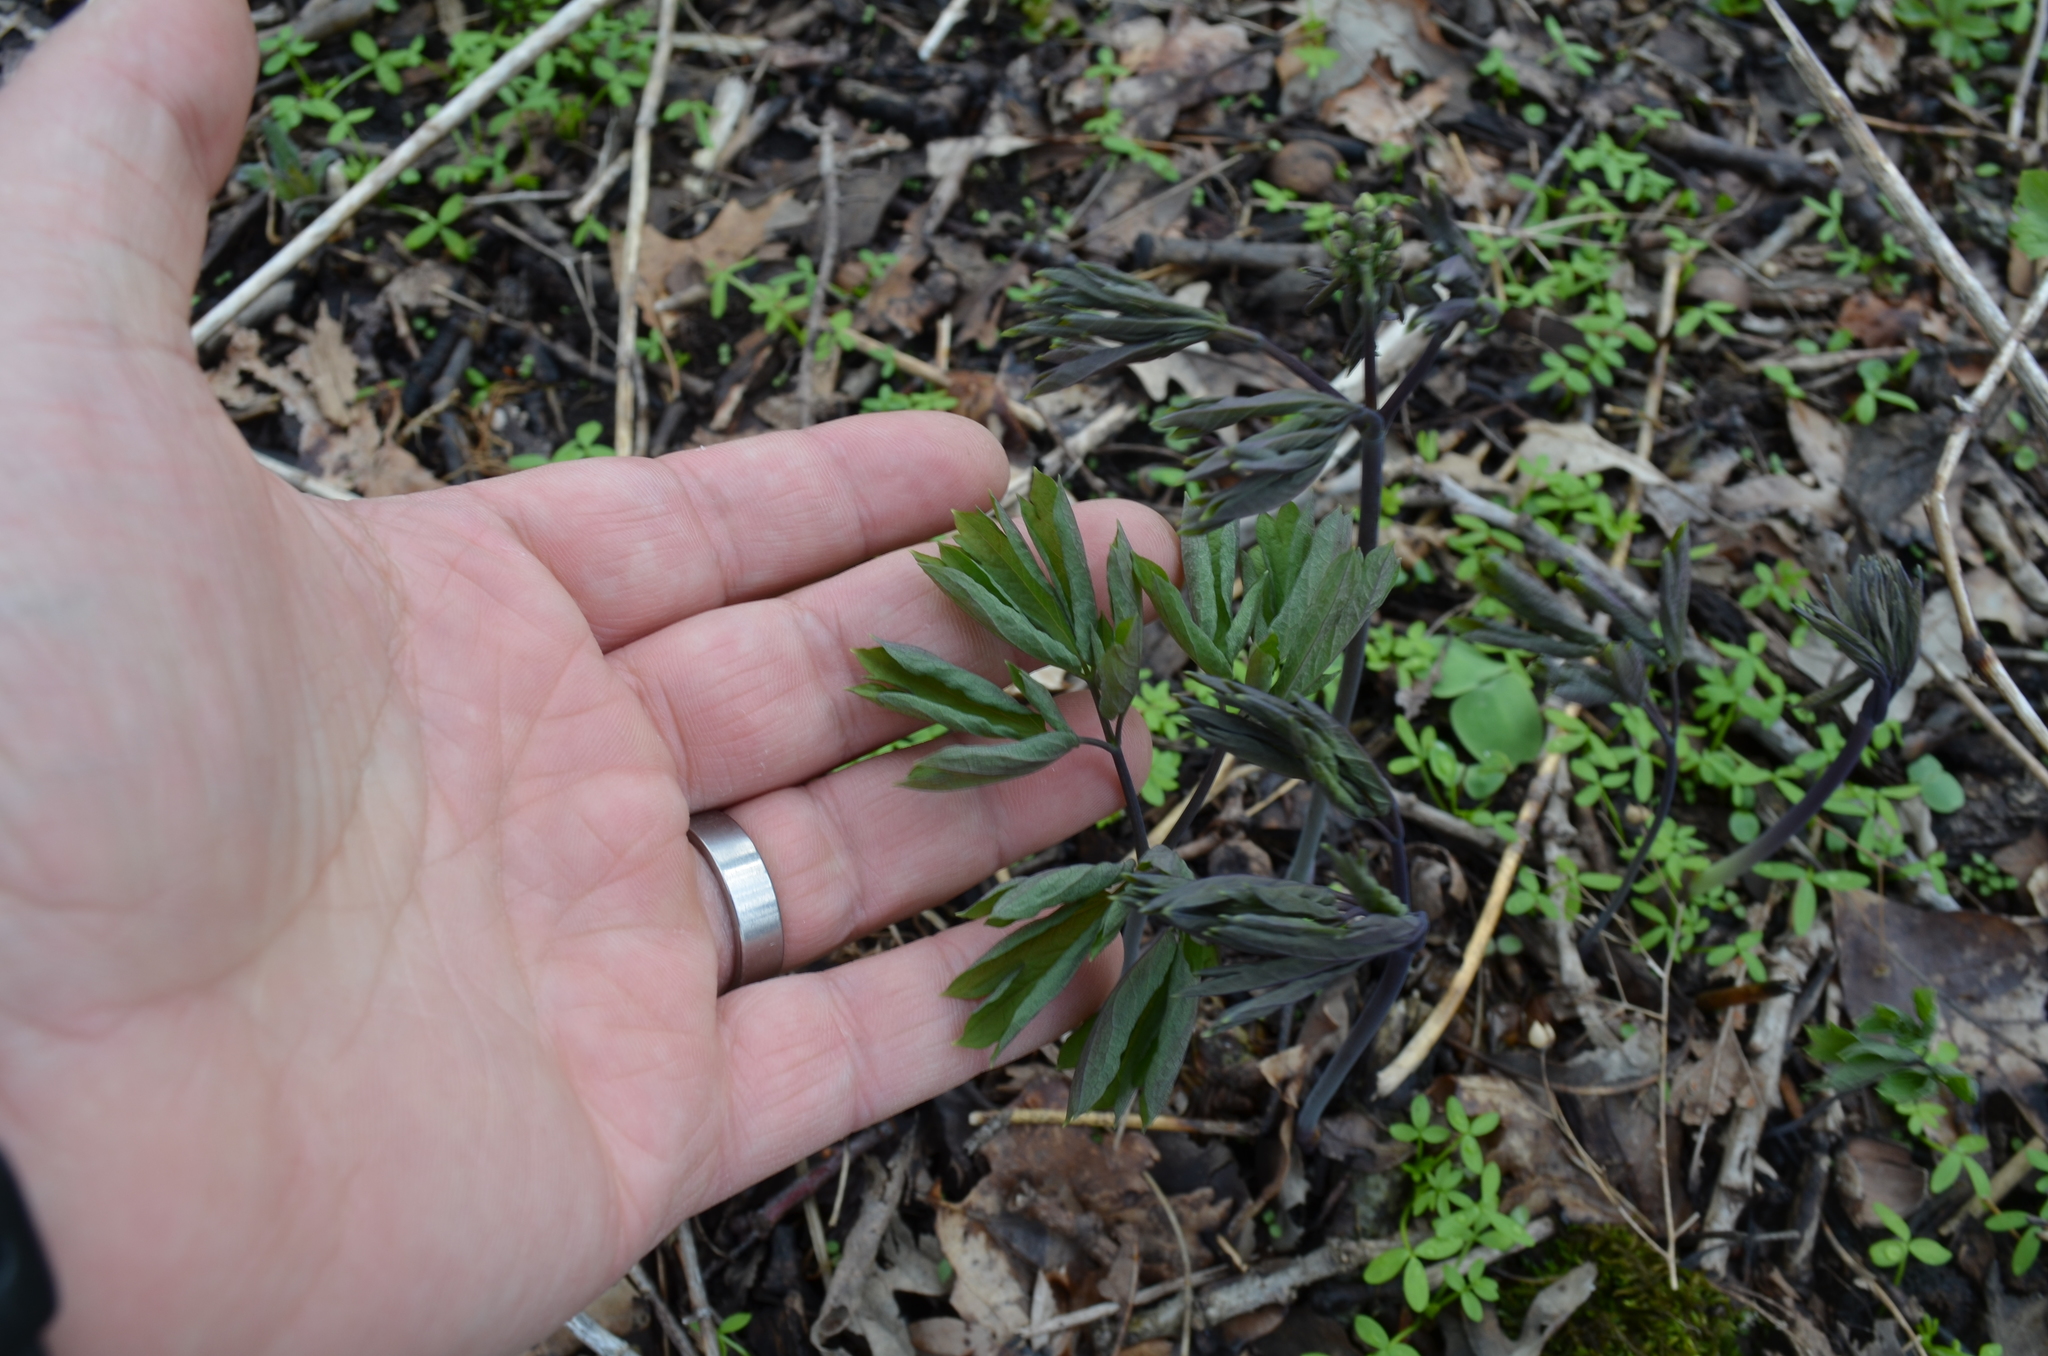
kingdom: Plantae
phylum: Tracheophyta
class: Magnoliopsida
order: Ranunculales
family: Berberidaceae
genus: Caulophyllum
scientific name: Caulophyllum thalictroides
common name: Blue cohosh
